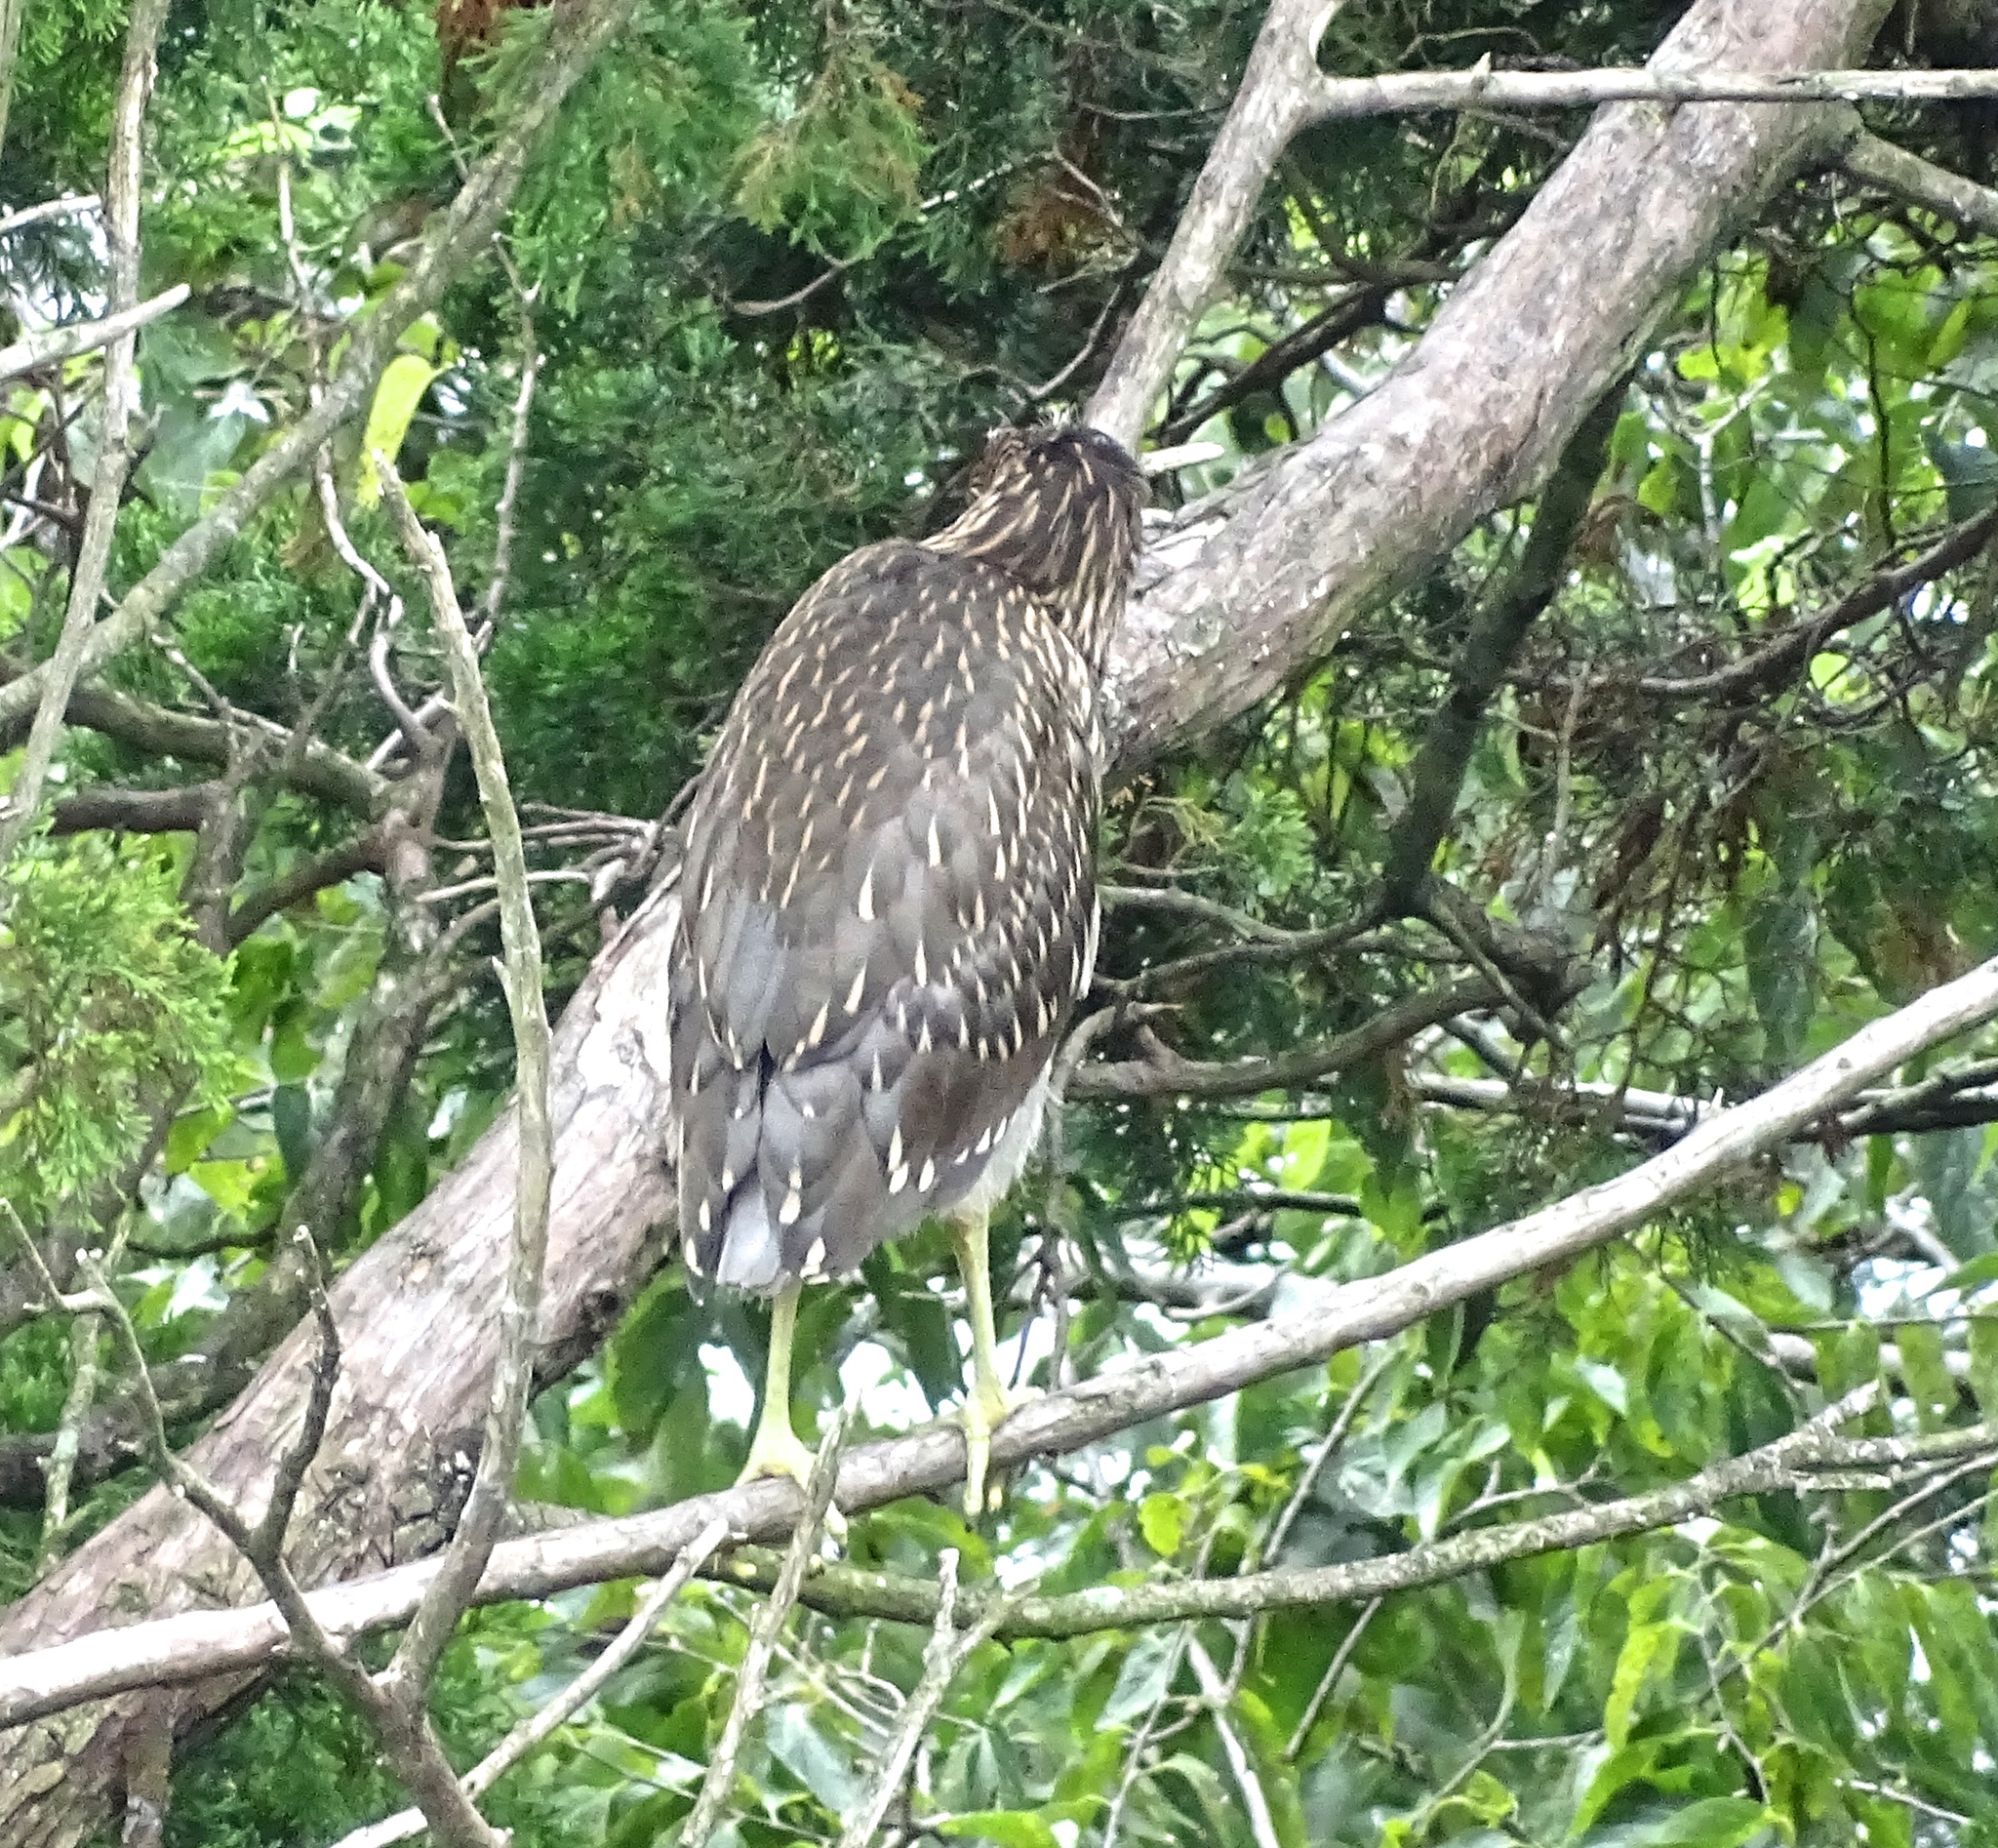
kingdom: Animalia
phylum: Chordata
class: Aves
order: Pelecaniformes
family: Ardeidae
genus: Nycticorax
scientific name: Nycticorax nycticorax
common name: Black-crowned night heron
